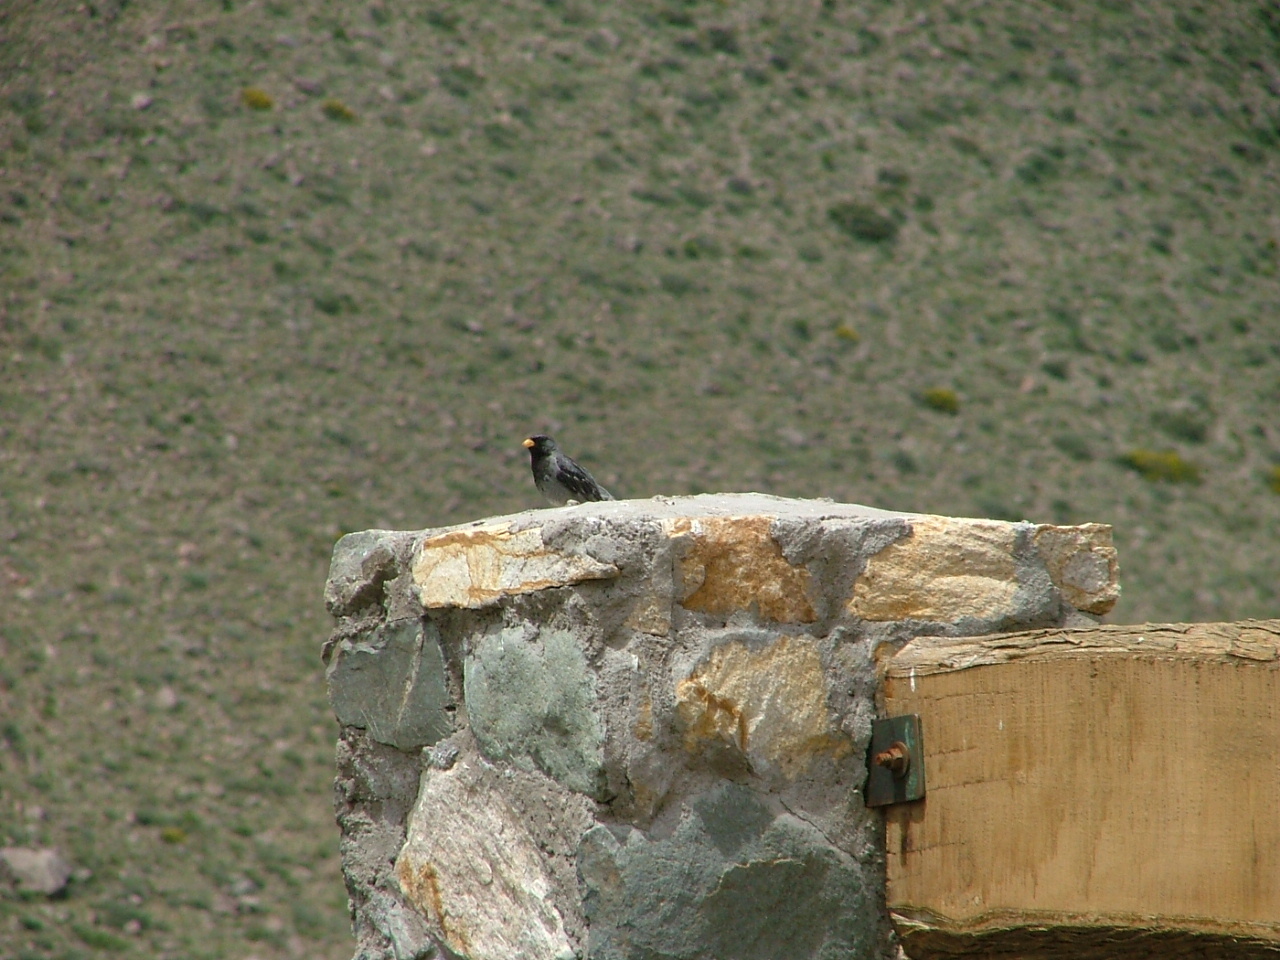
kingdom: Animalia
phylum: Chordata
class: Aves
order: Passeriformes
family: Thraupidae
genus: Rhopospina
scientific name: Rhopospina fruticeti
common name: Mourning sierra finch
